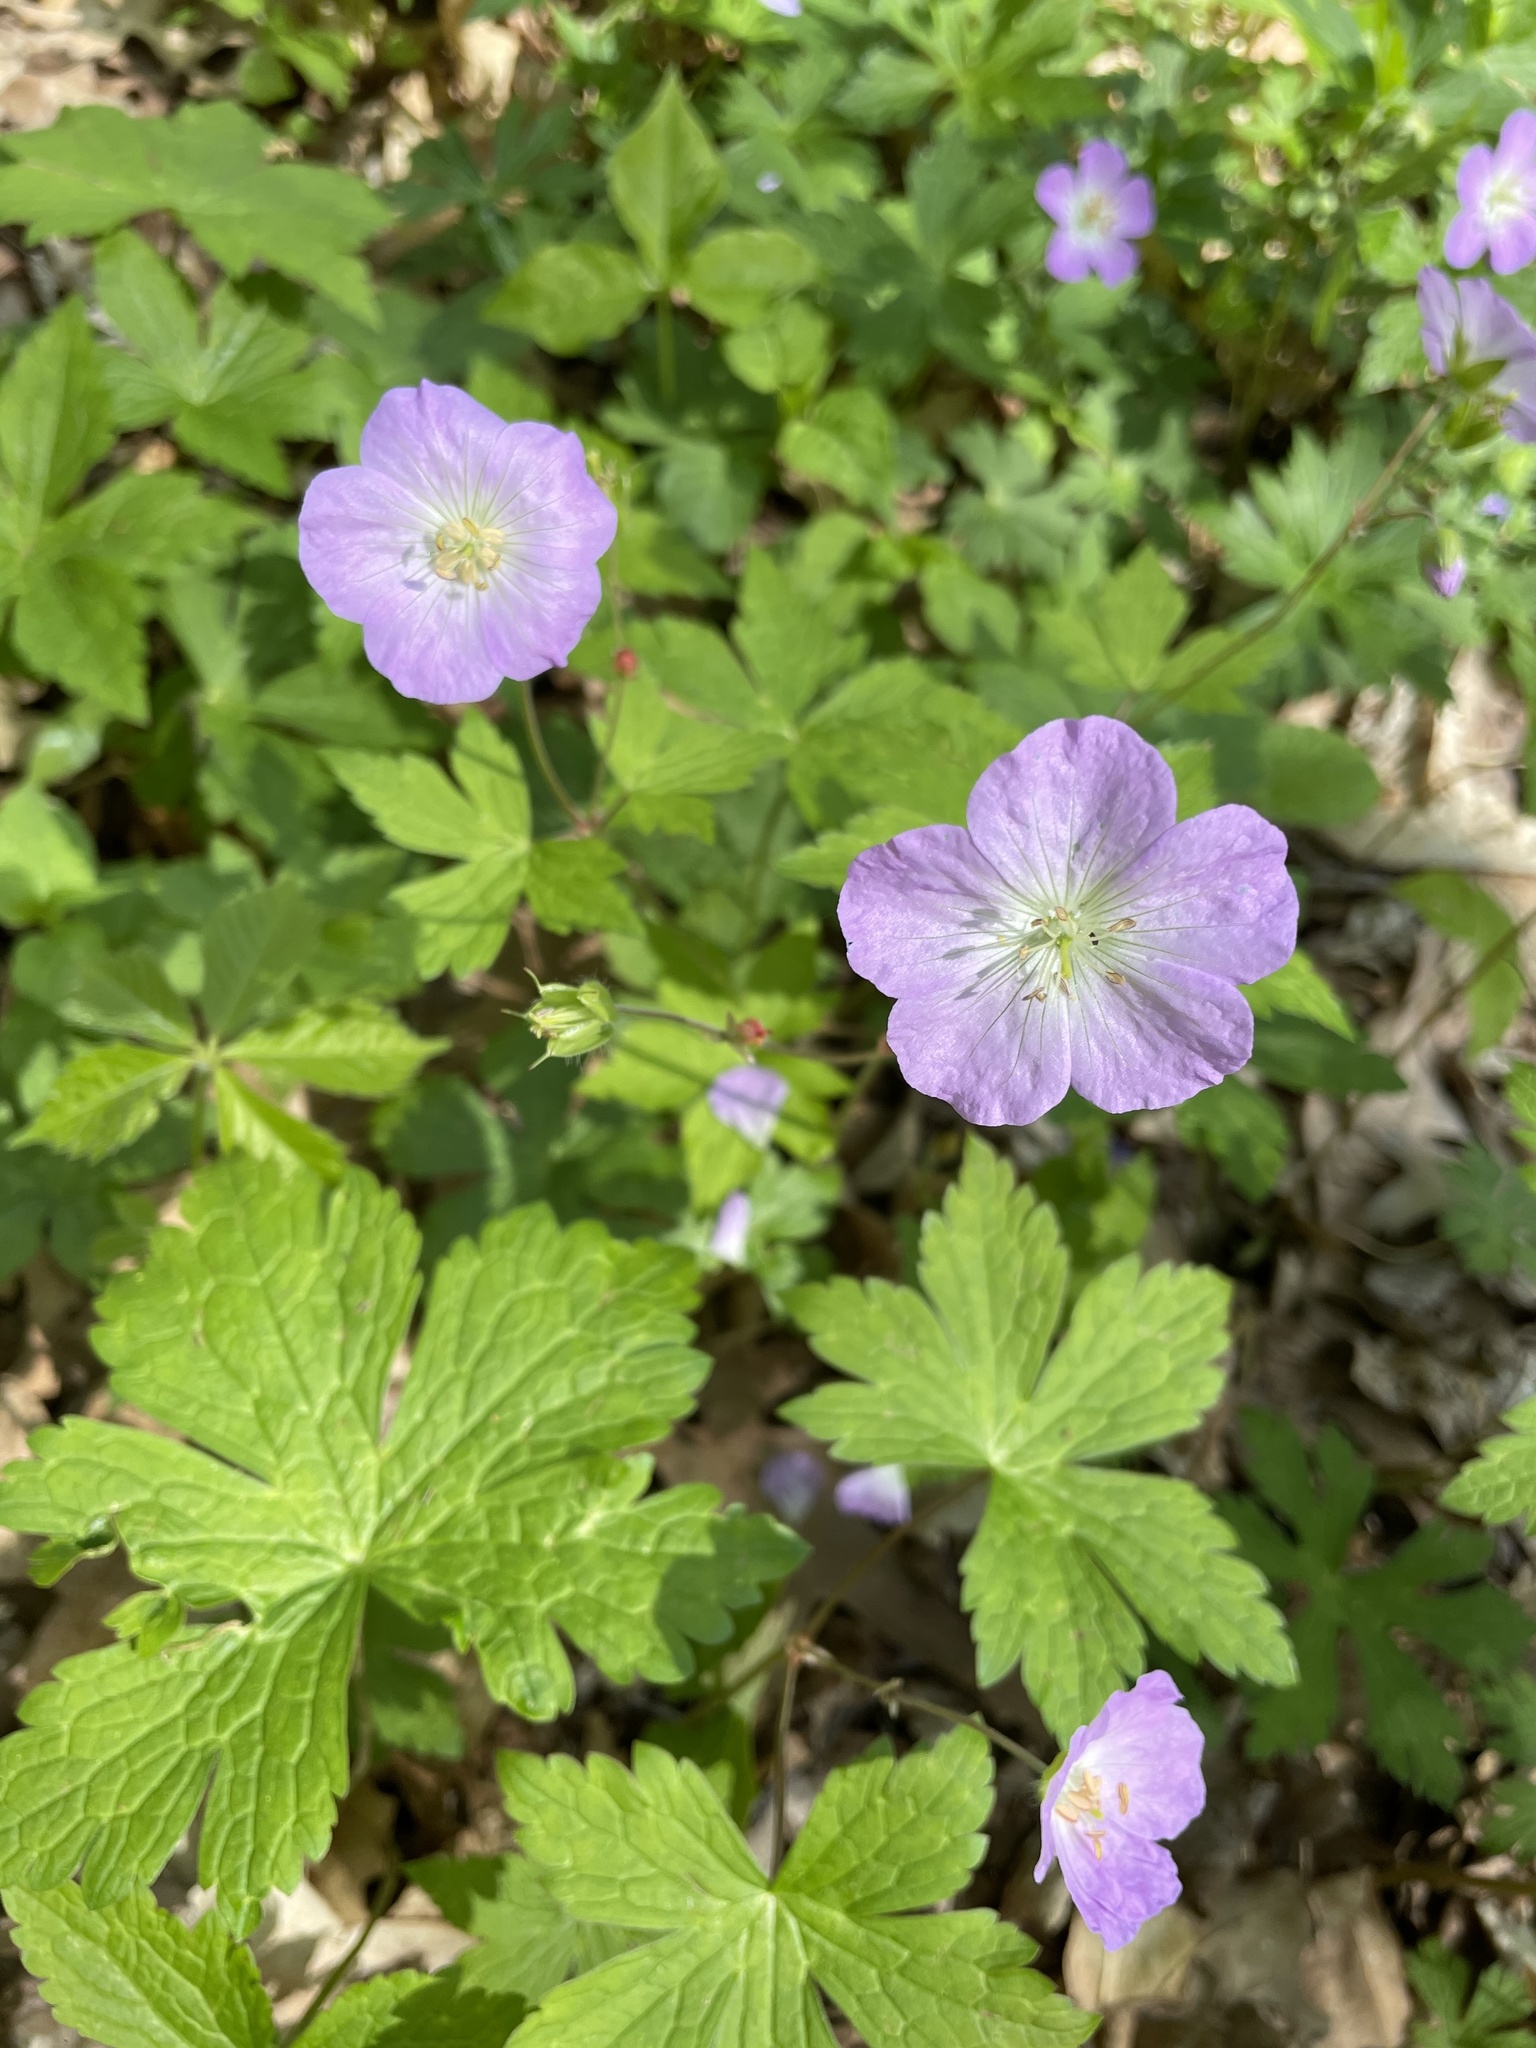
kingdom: Plantae
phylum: Tracheophyta
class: Magnoliopsida
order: Geraniales
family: Geraniaceae
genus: Geranium
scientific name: Geranium maculatum
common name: Spotted geranium
